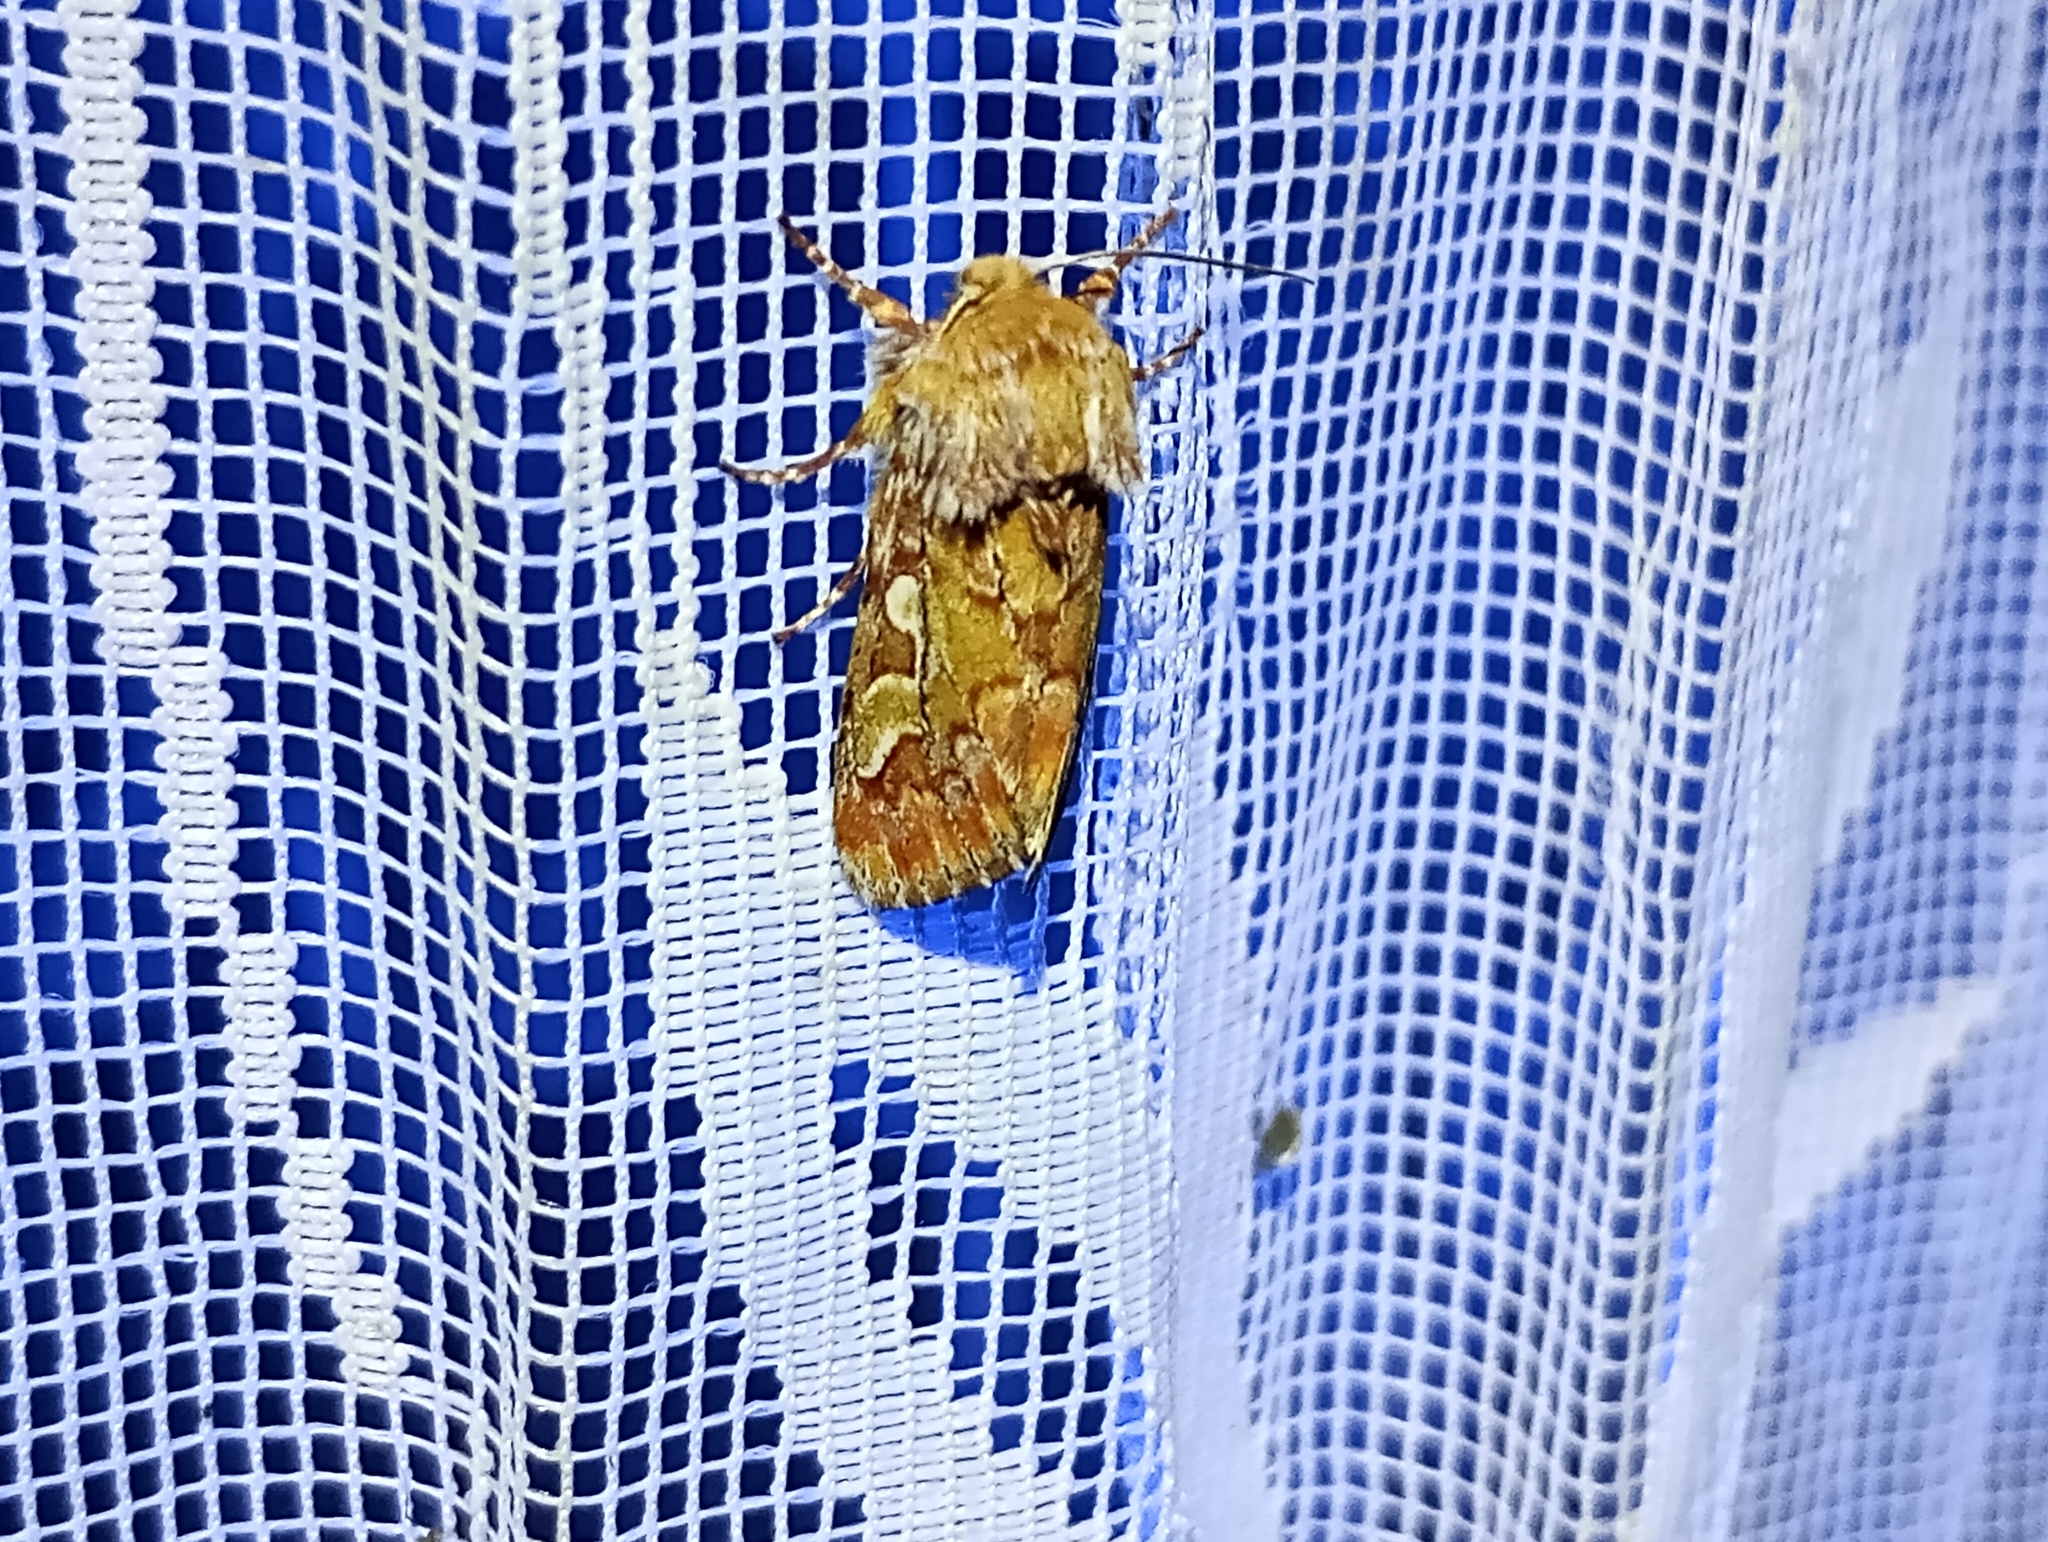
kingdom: Animalia
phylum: Arthropoda
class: Insecta
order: Lepidoptera
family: Noctuidae
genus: Panolis
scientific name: Panolis flammea
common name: Pine beauty
